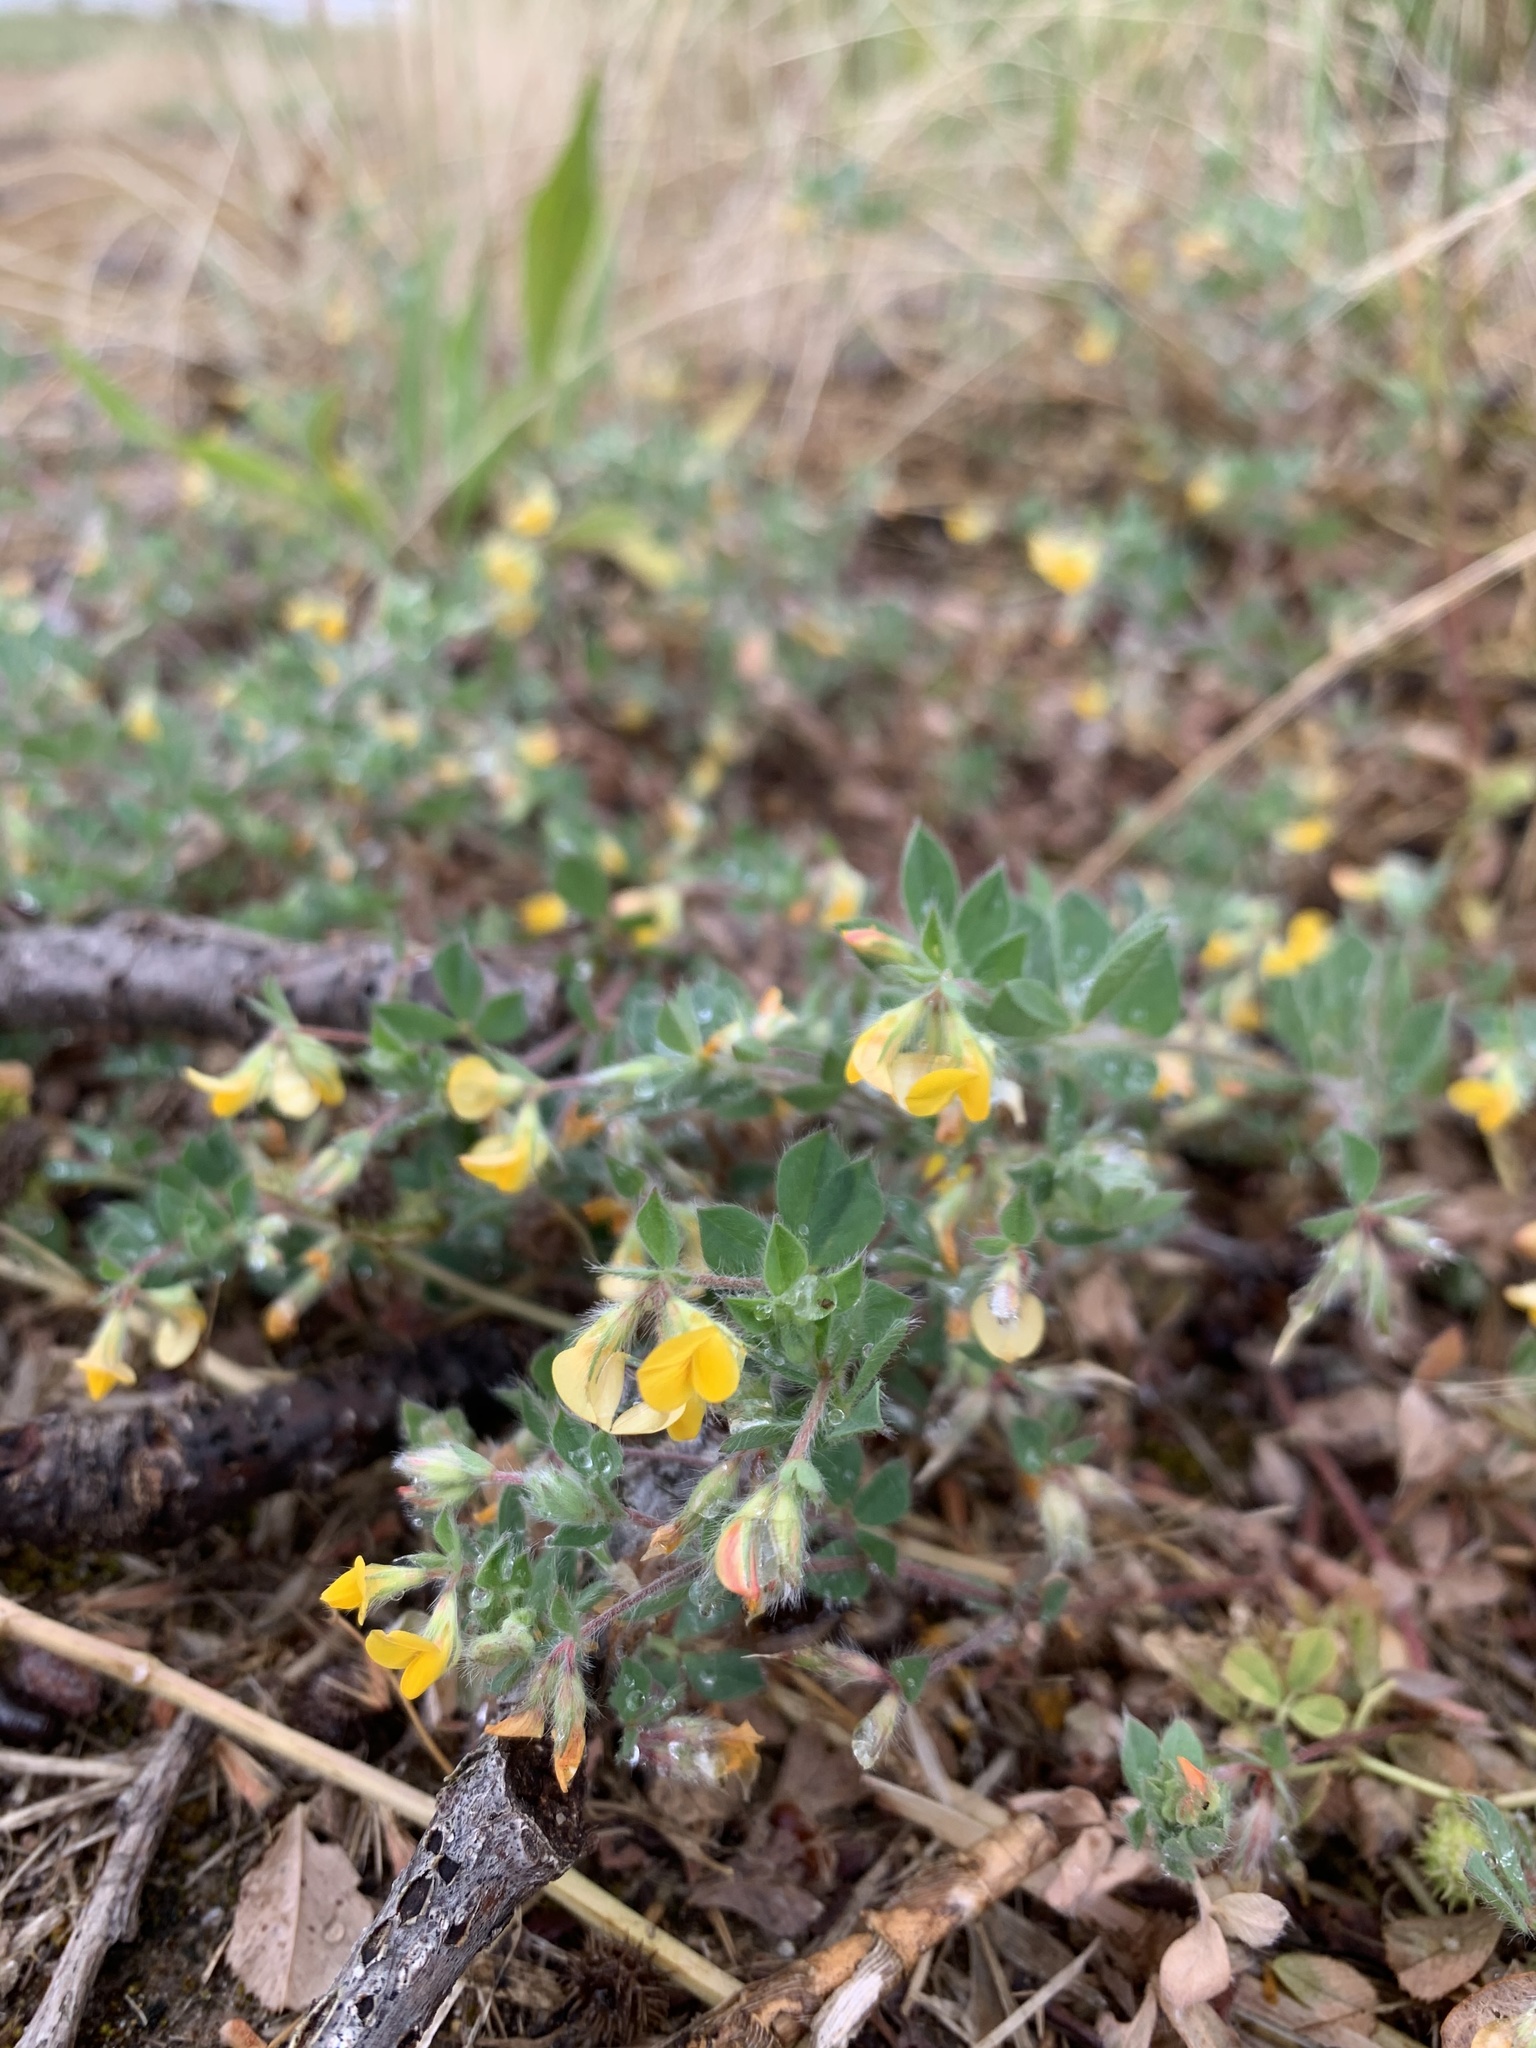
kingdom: Plantae
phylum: Tracheophyta
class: Magnoliopsida
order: Fabales
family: Fabaceae
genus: Lotus
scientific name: Lotus subbiflorus
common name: Hairy bird's-foot trefoil
